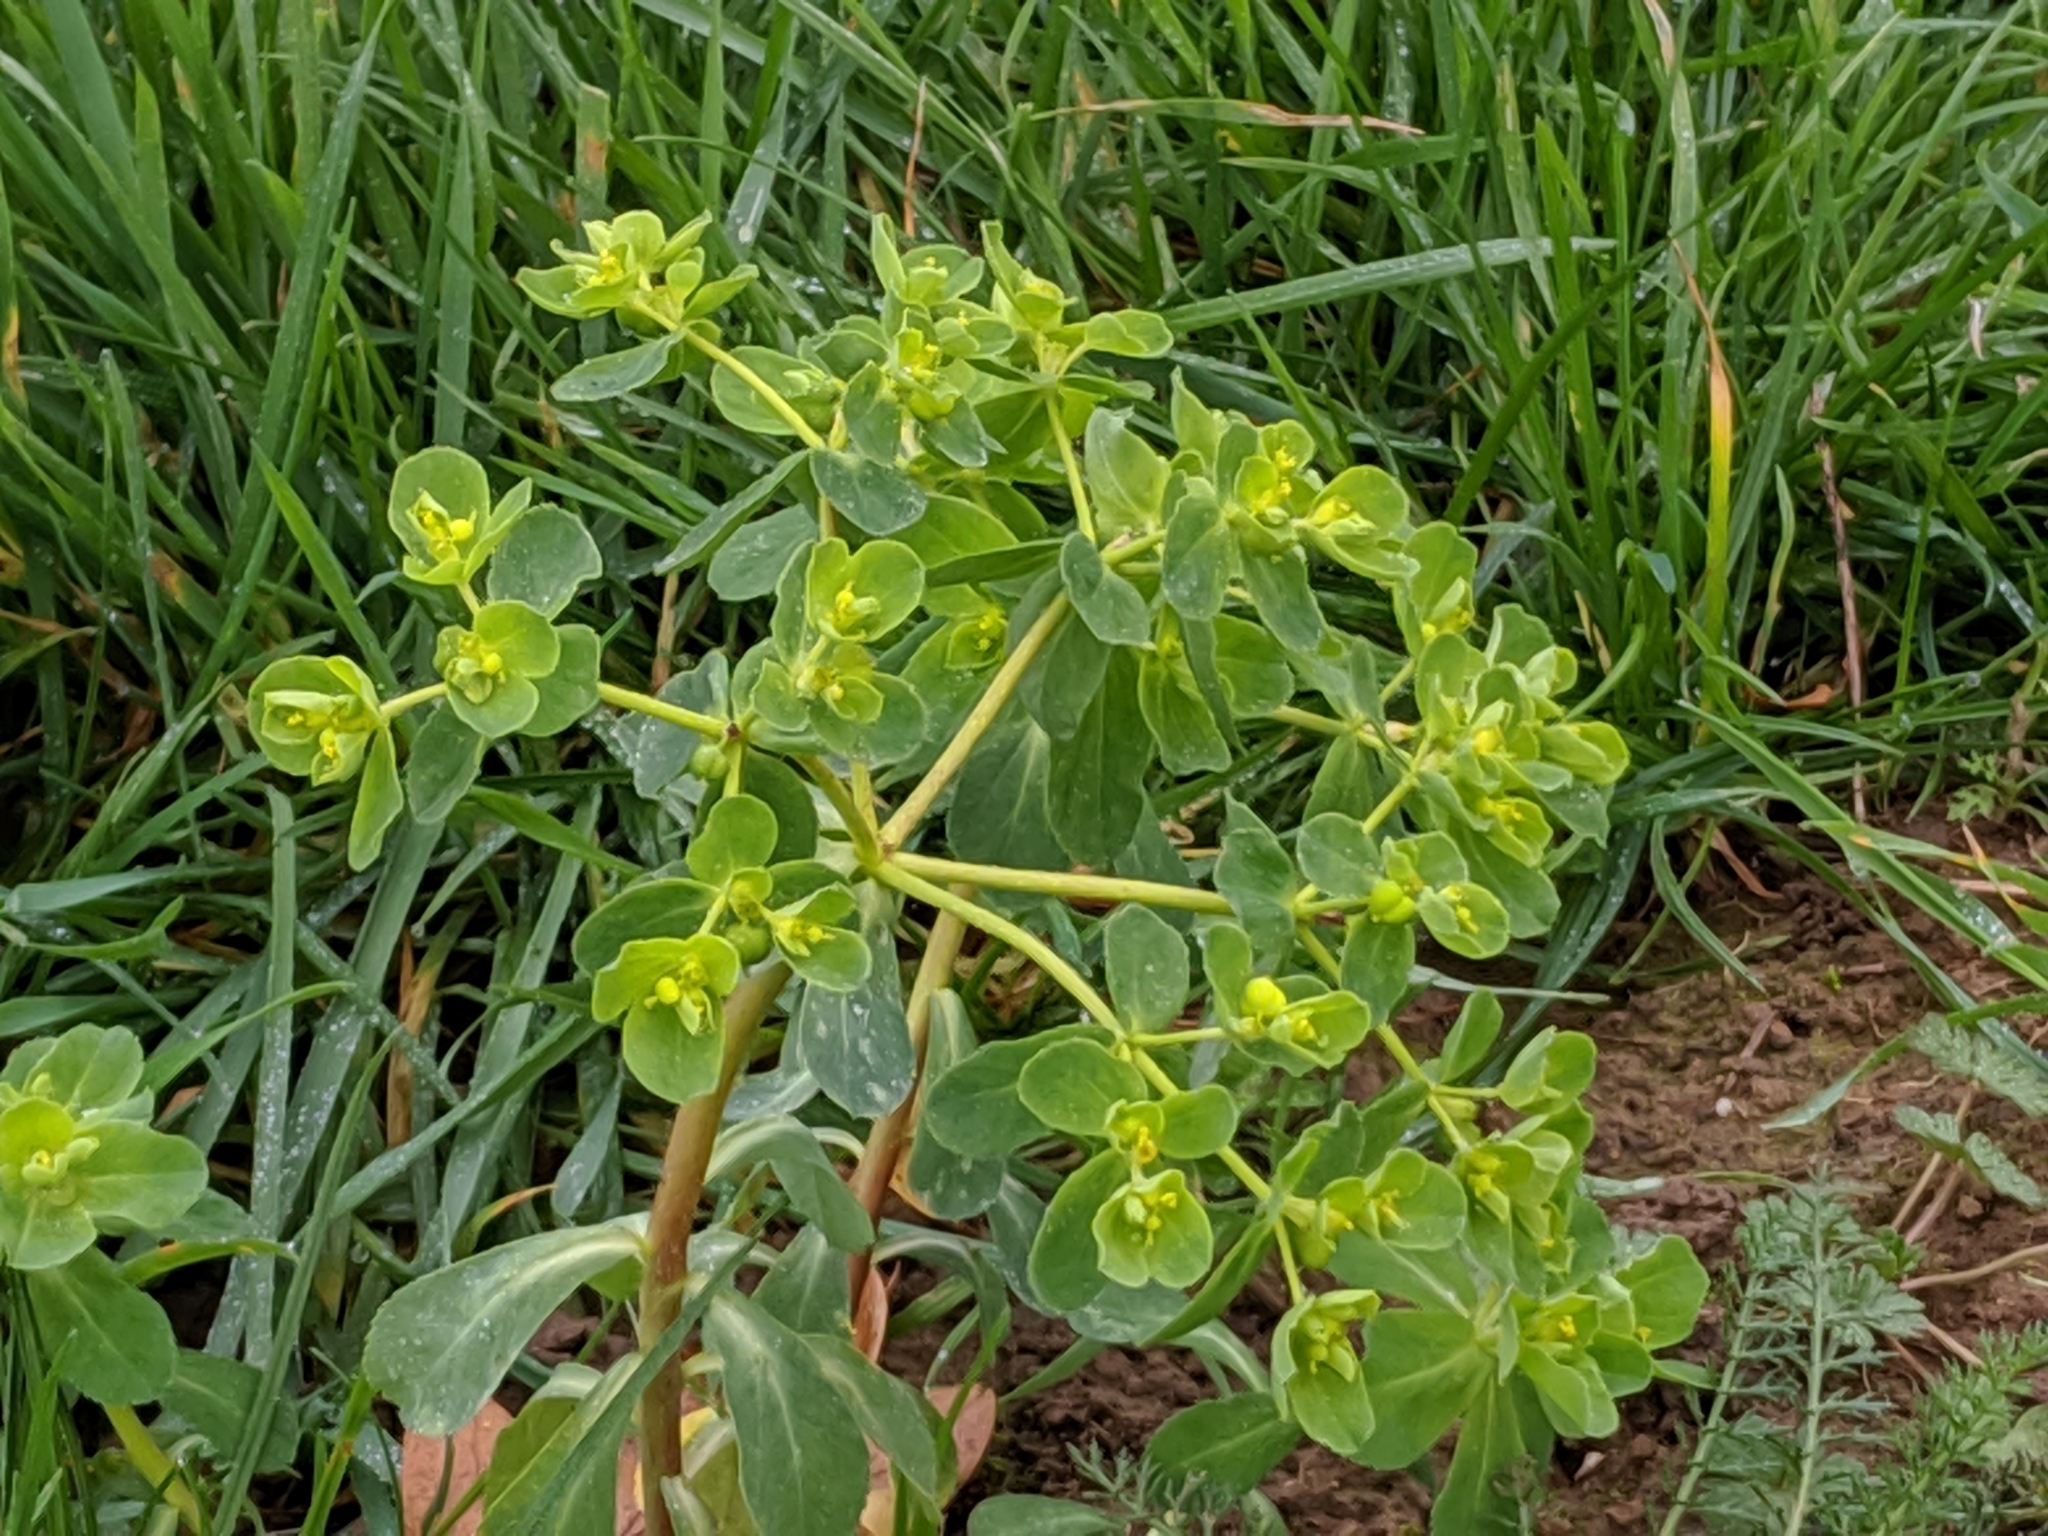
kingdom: Plantae
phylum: Tracheophyta
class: Magnoliopsida
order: Malpighiales
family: Euphorbiaceae
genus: Euphorbia
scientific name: Euphorbia helioscopia
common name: Sun spurge
